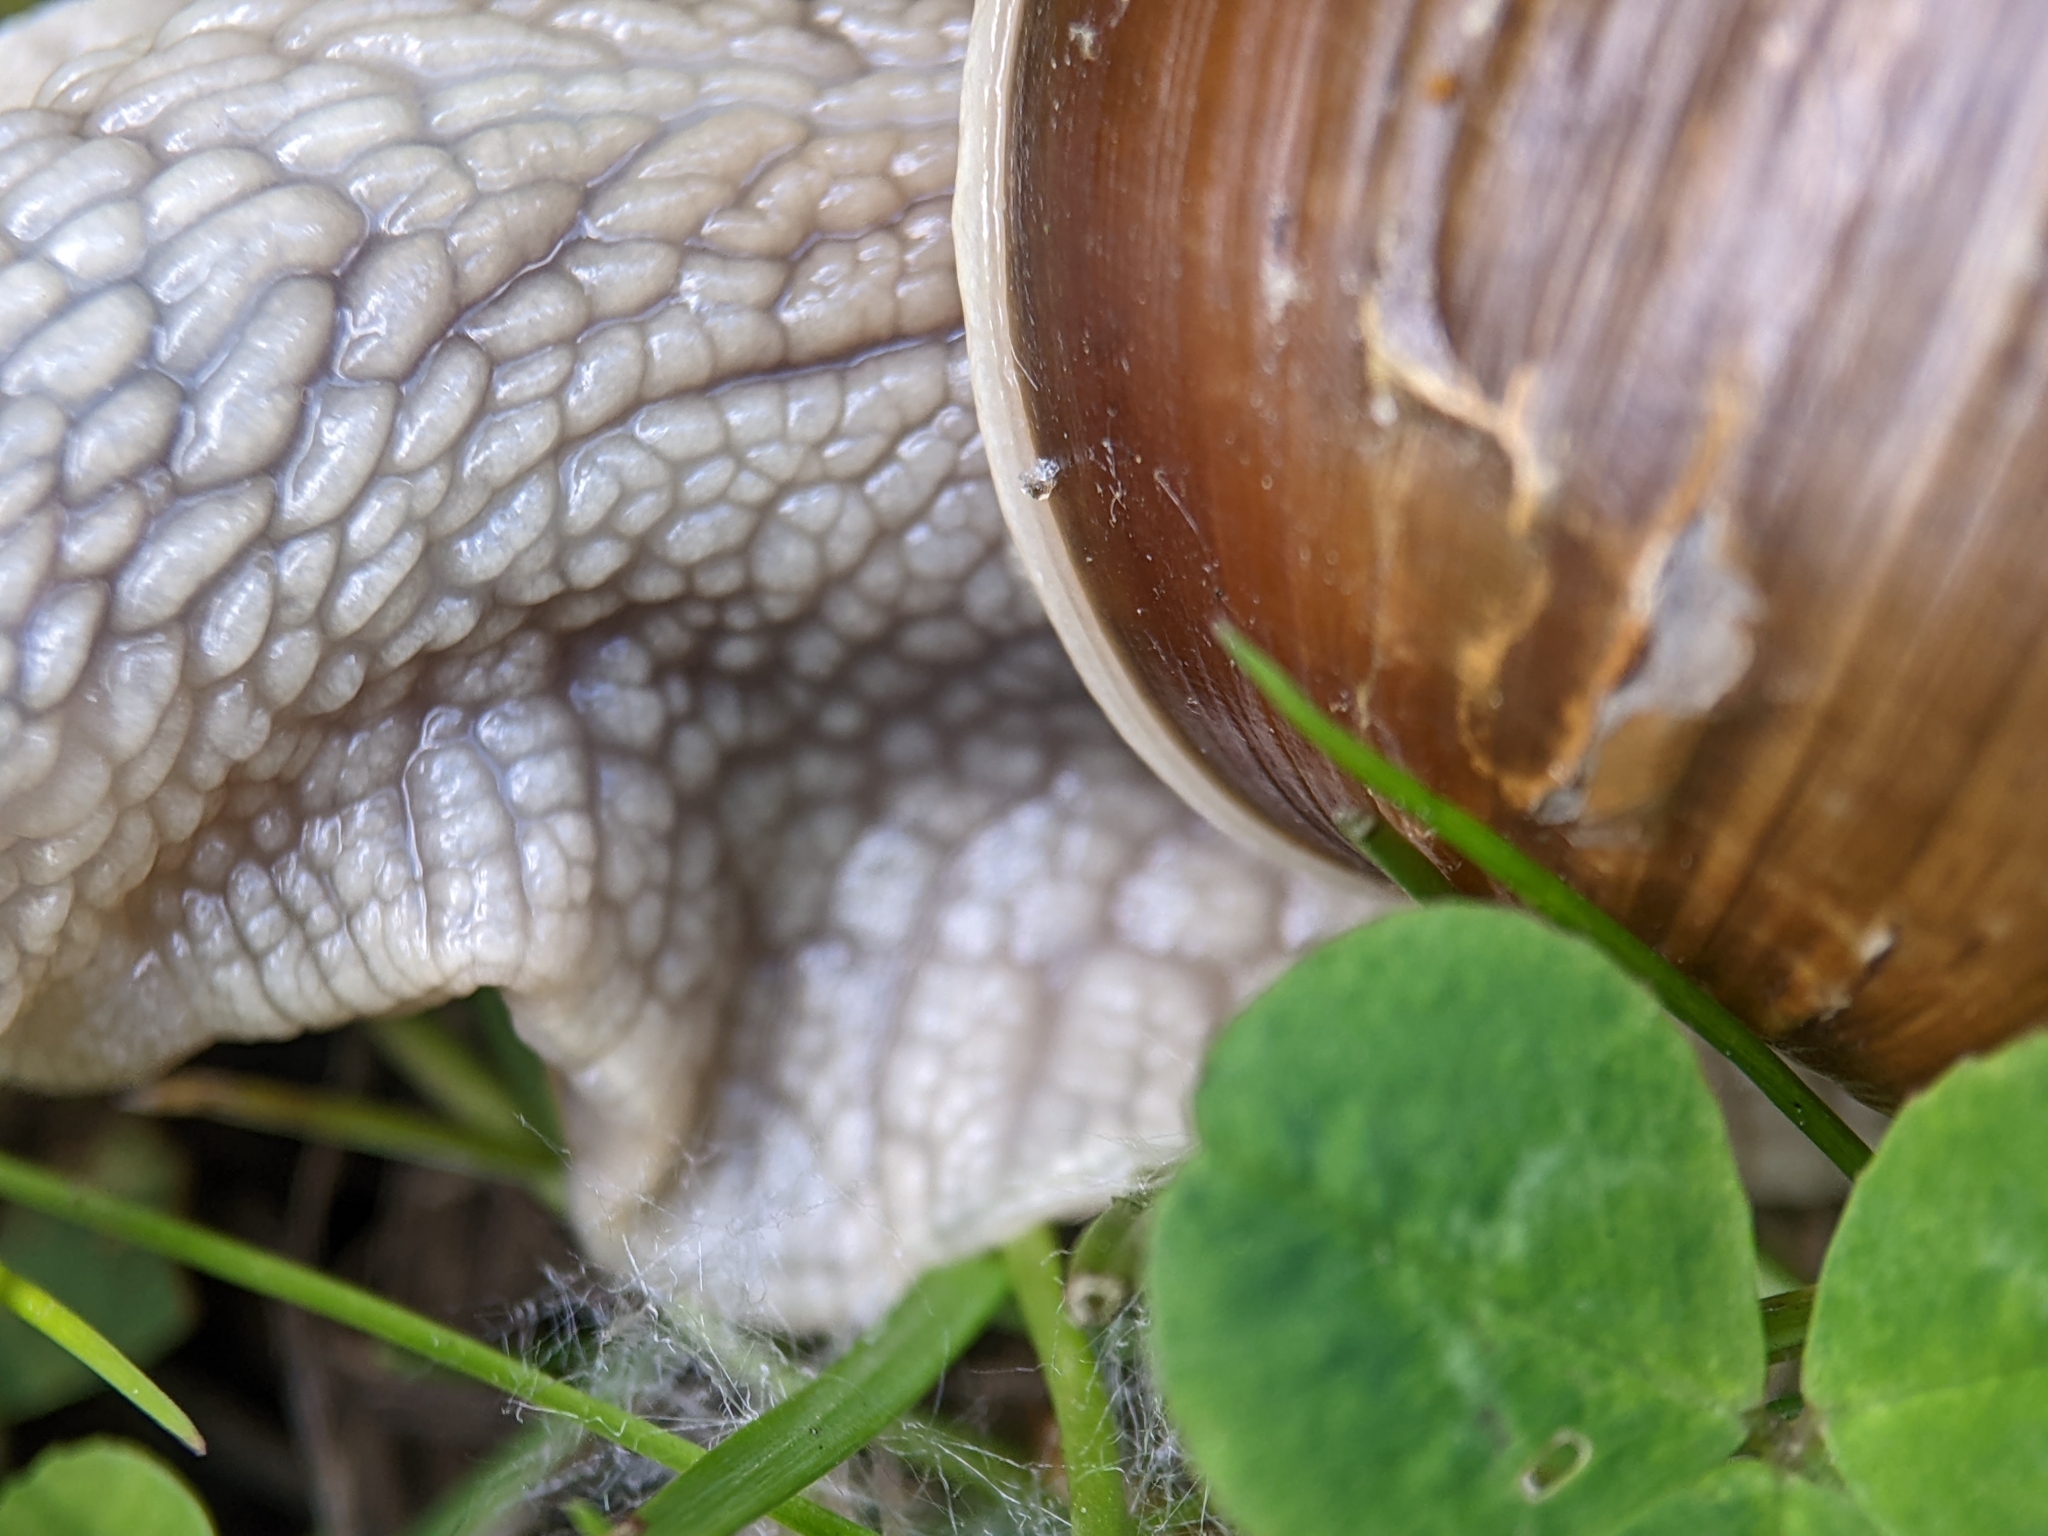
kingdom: Animalia
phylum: Mollusca
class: Gastropoda
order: Stylommatophora
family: Helicidae
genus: Helix
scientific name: Helix pomatia
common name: Roman snail
